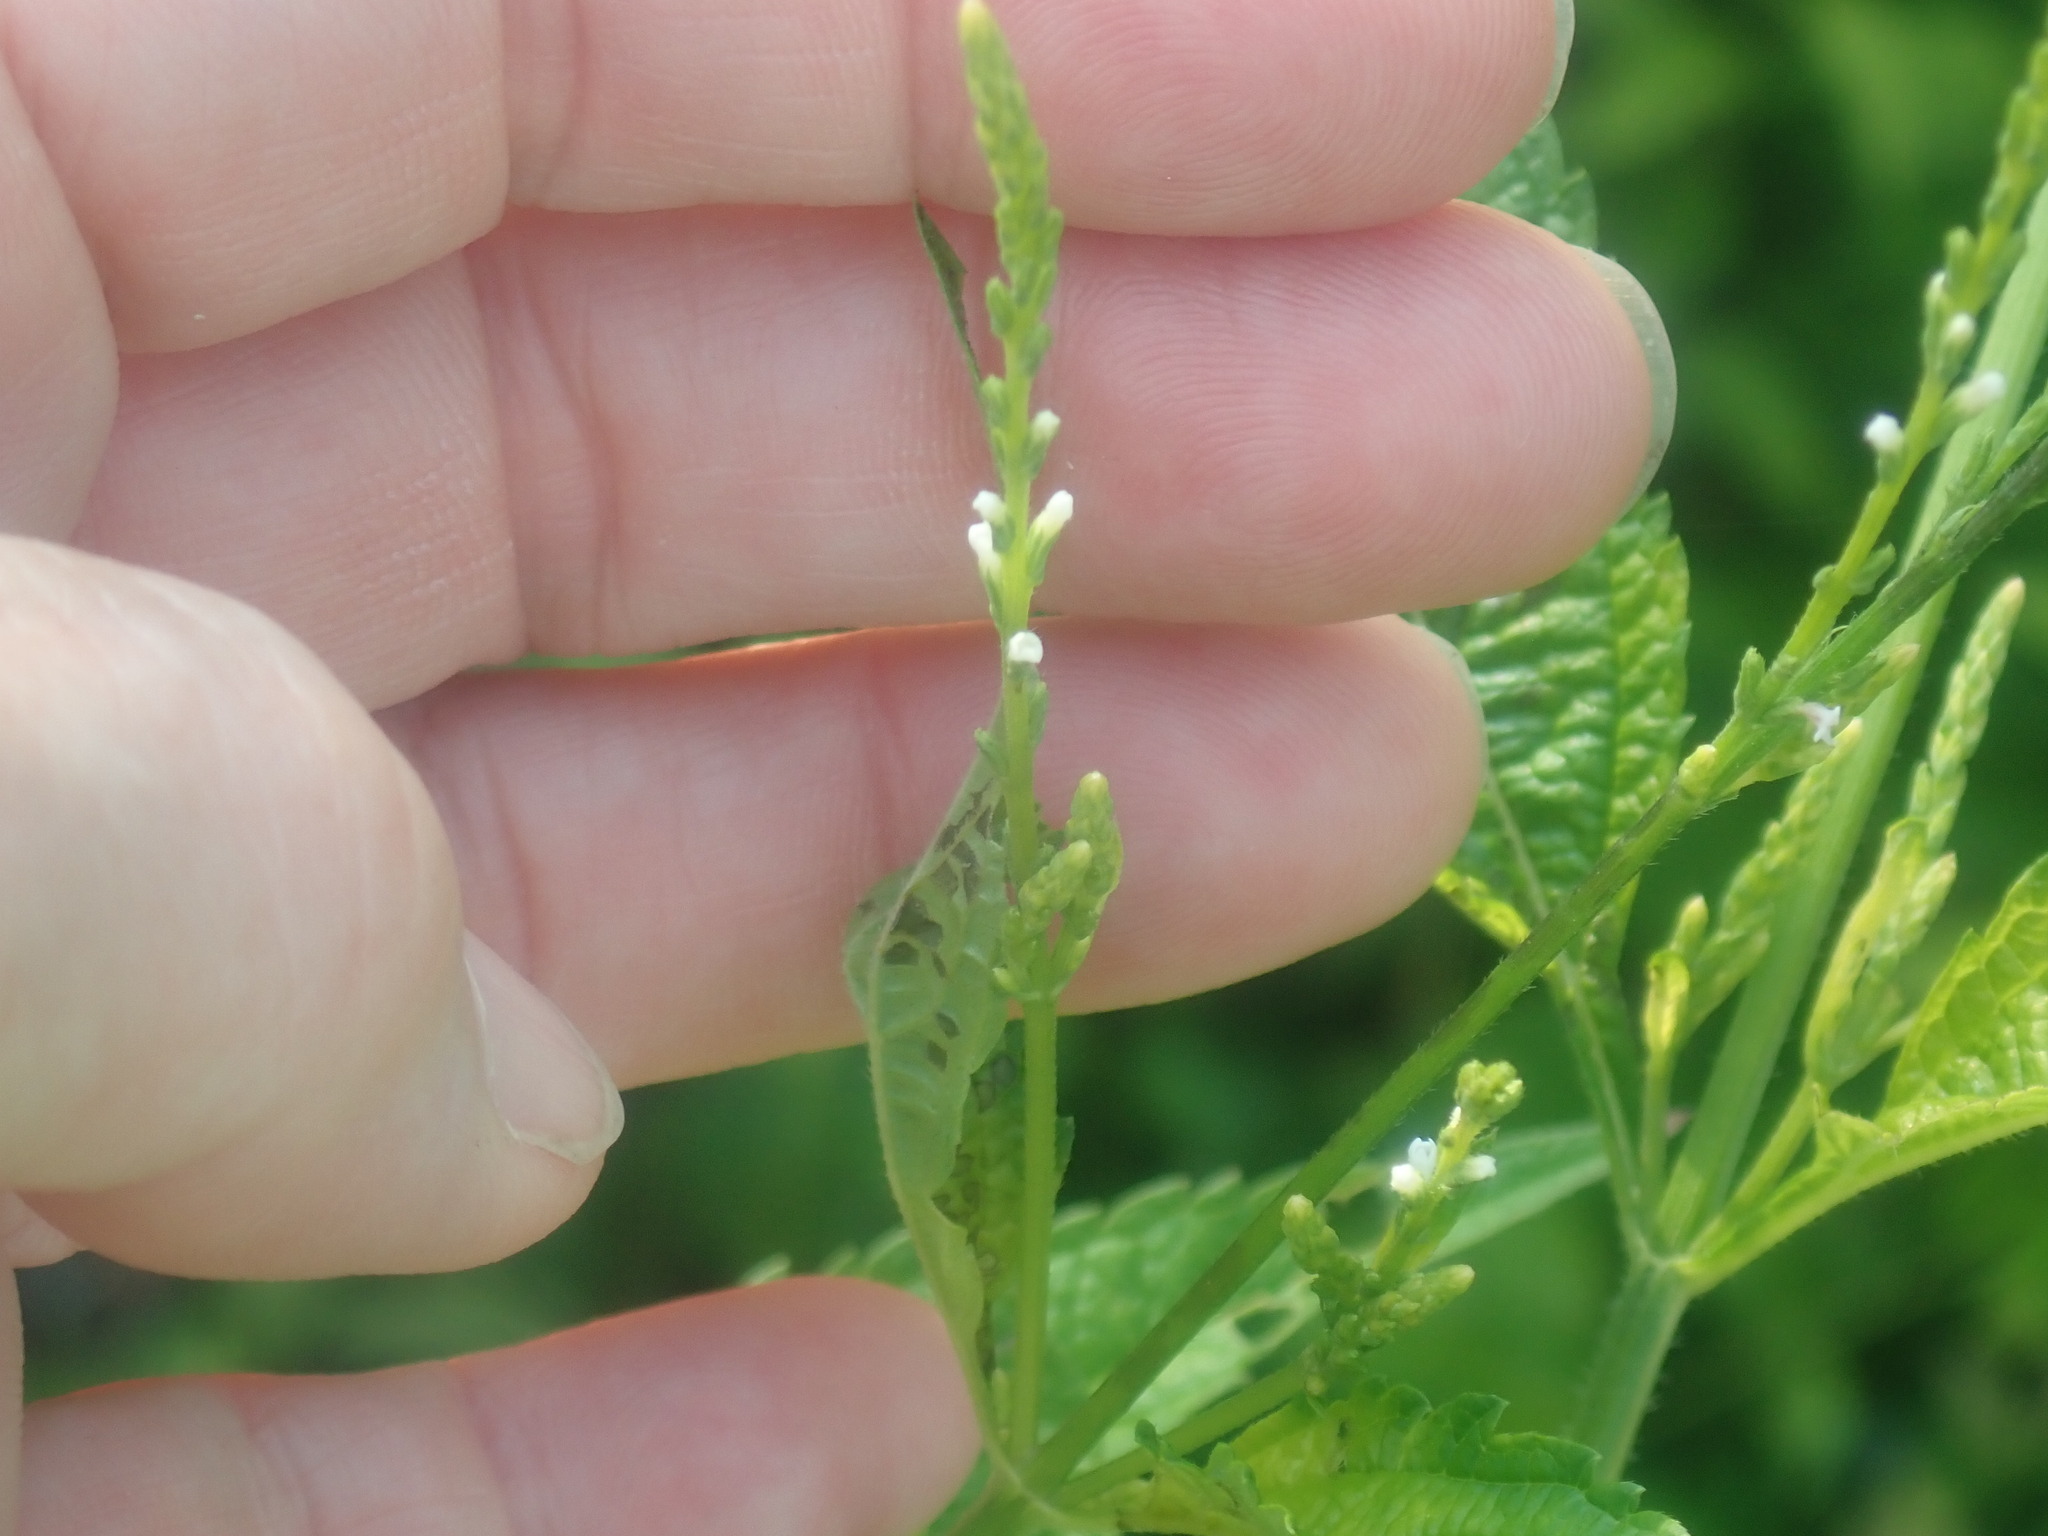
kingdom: Plantae
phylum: Tracheophyta
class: Magnoliopsida
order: Lamiales
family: Verbenaceae
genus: Verbena
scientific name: Verbena urticifolia
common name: Nettle-leaved vervain
